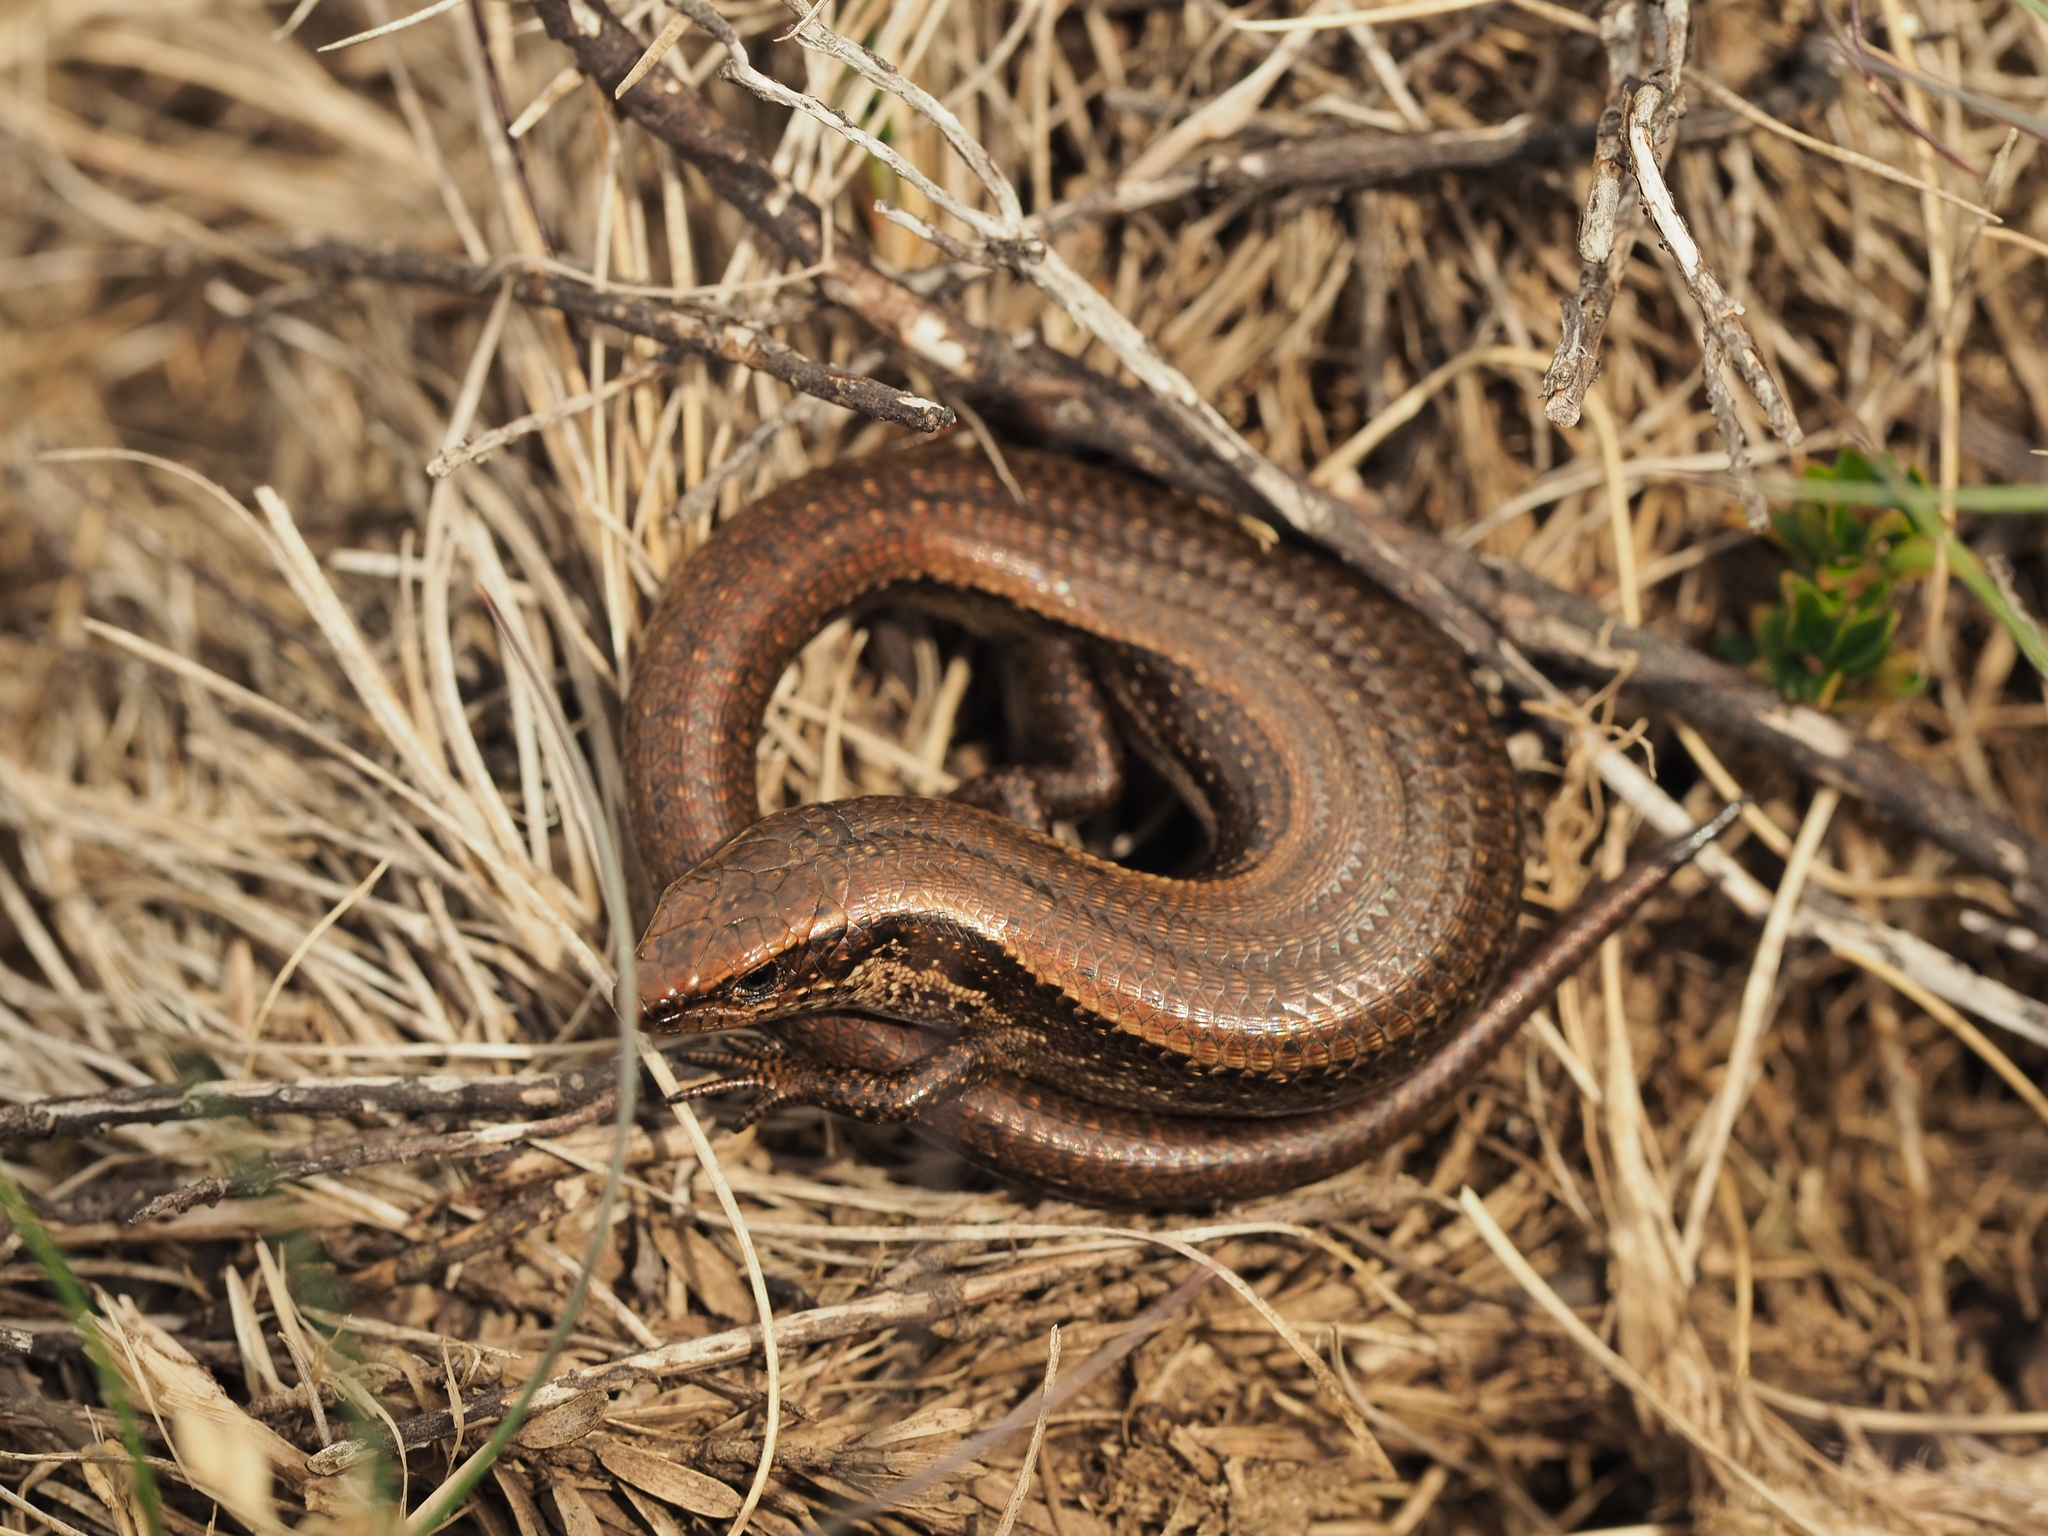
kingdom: Animalia
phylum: Chordata
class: Squamata
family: Scincidae
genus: Carinascincus
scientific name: Carinascincus metallicus
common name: Metallic cool-skink
